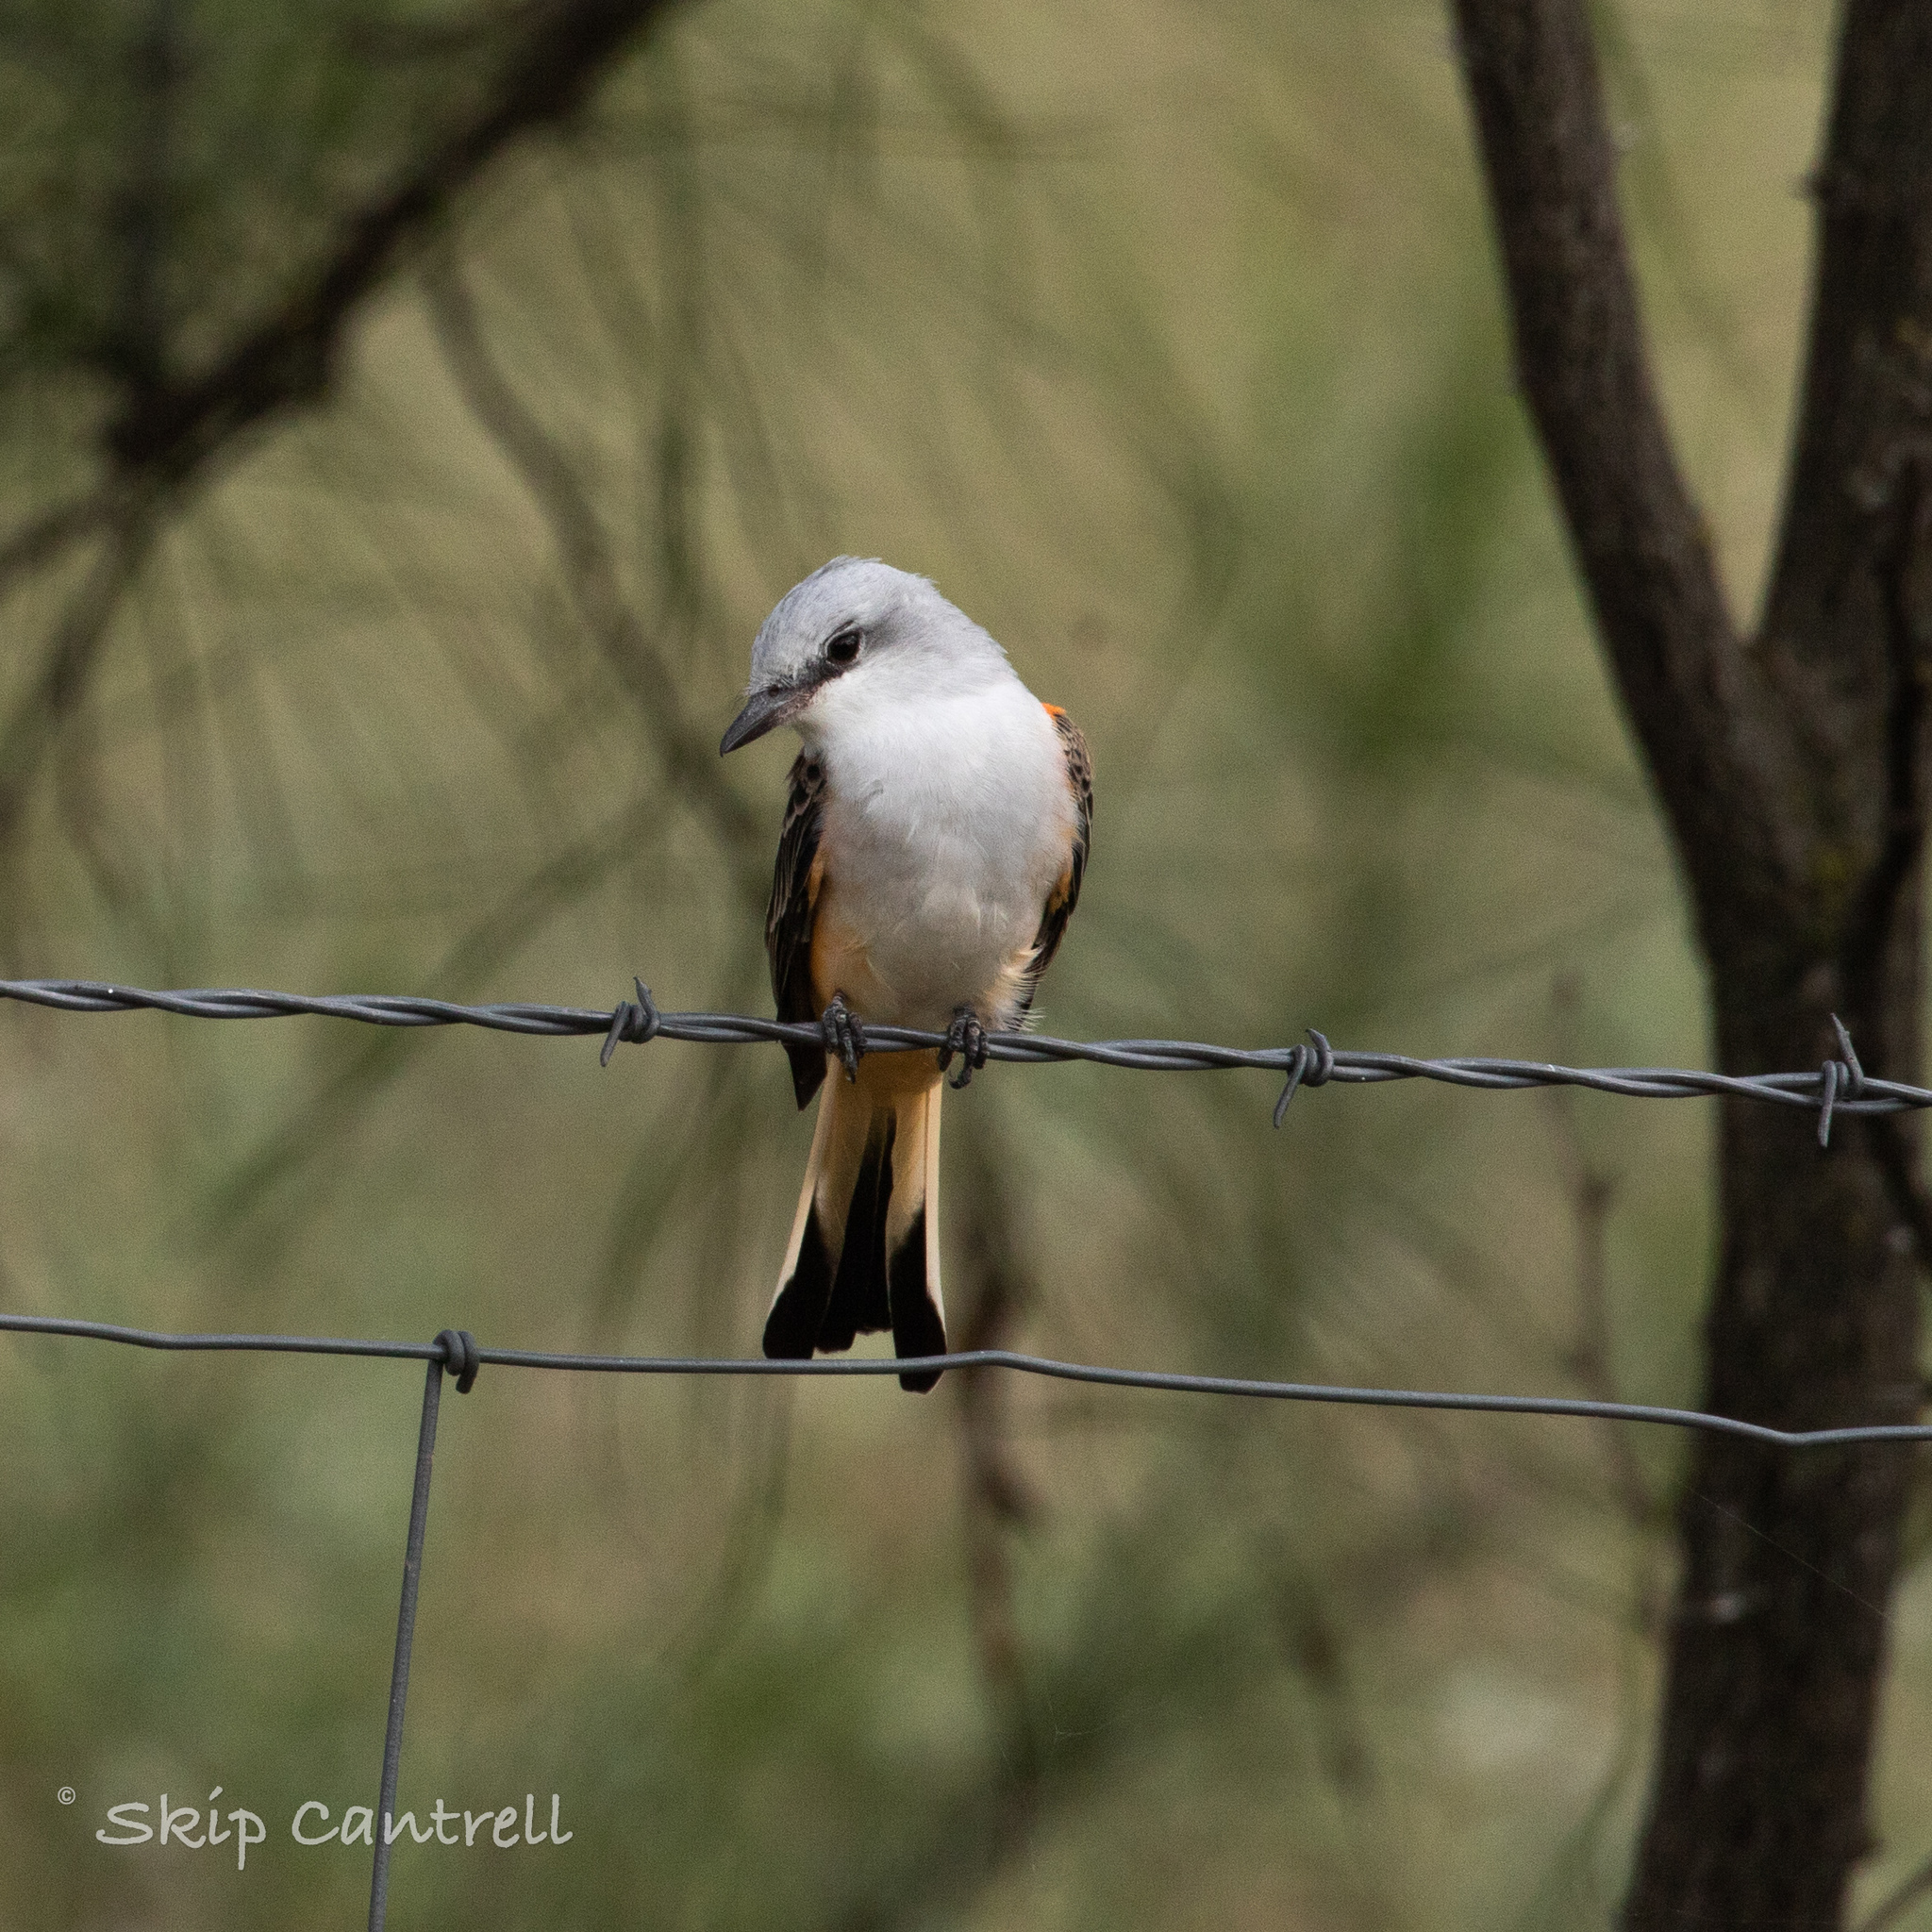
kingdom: Animalia
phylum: Chordata
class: Aves
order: Passeriformes
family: Tyrannidae
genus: Tyrannus
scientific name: Tyrannus forficatus
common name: Scissor-tailed flycatcher
